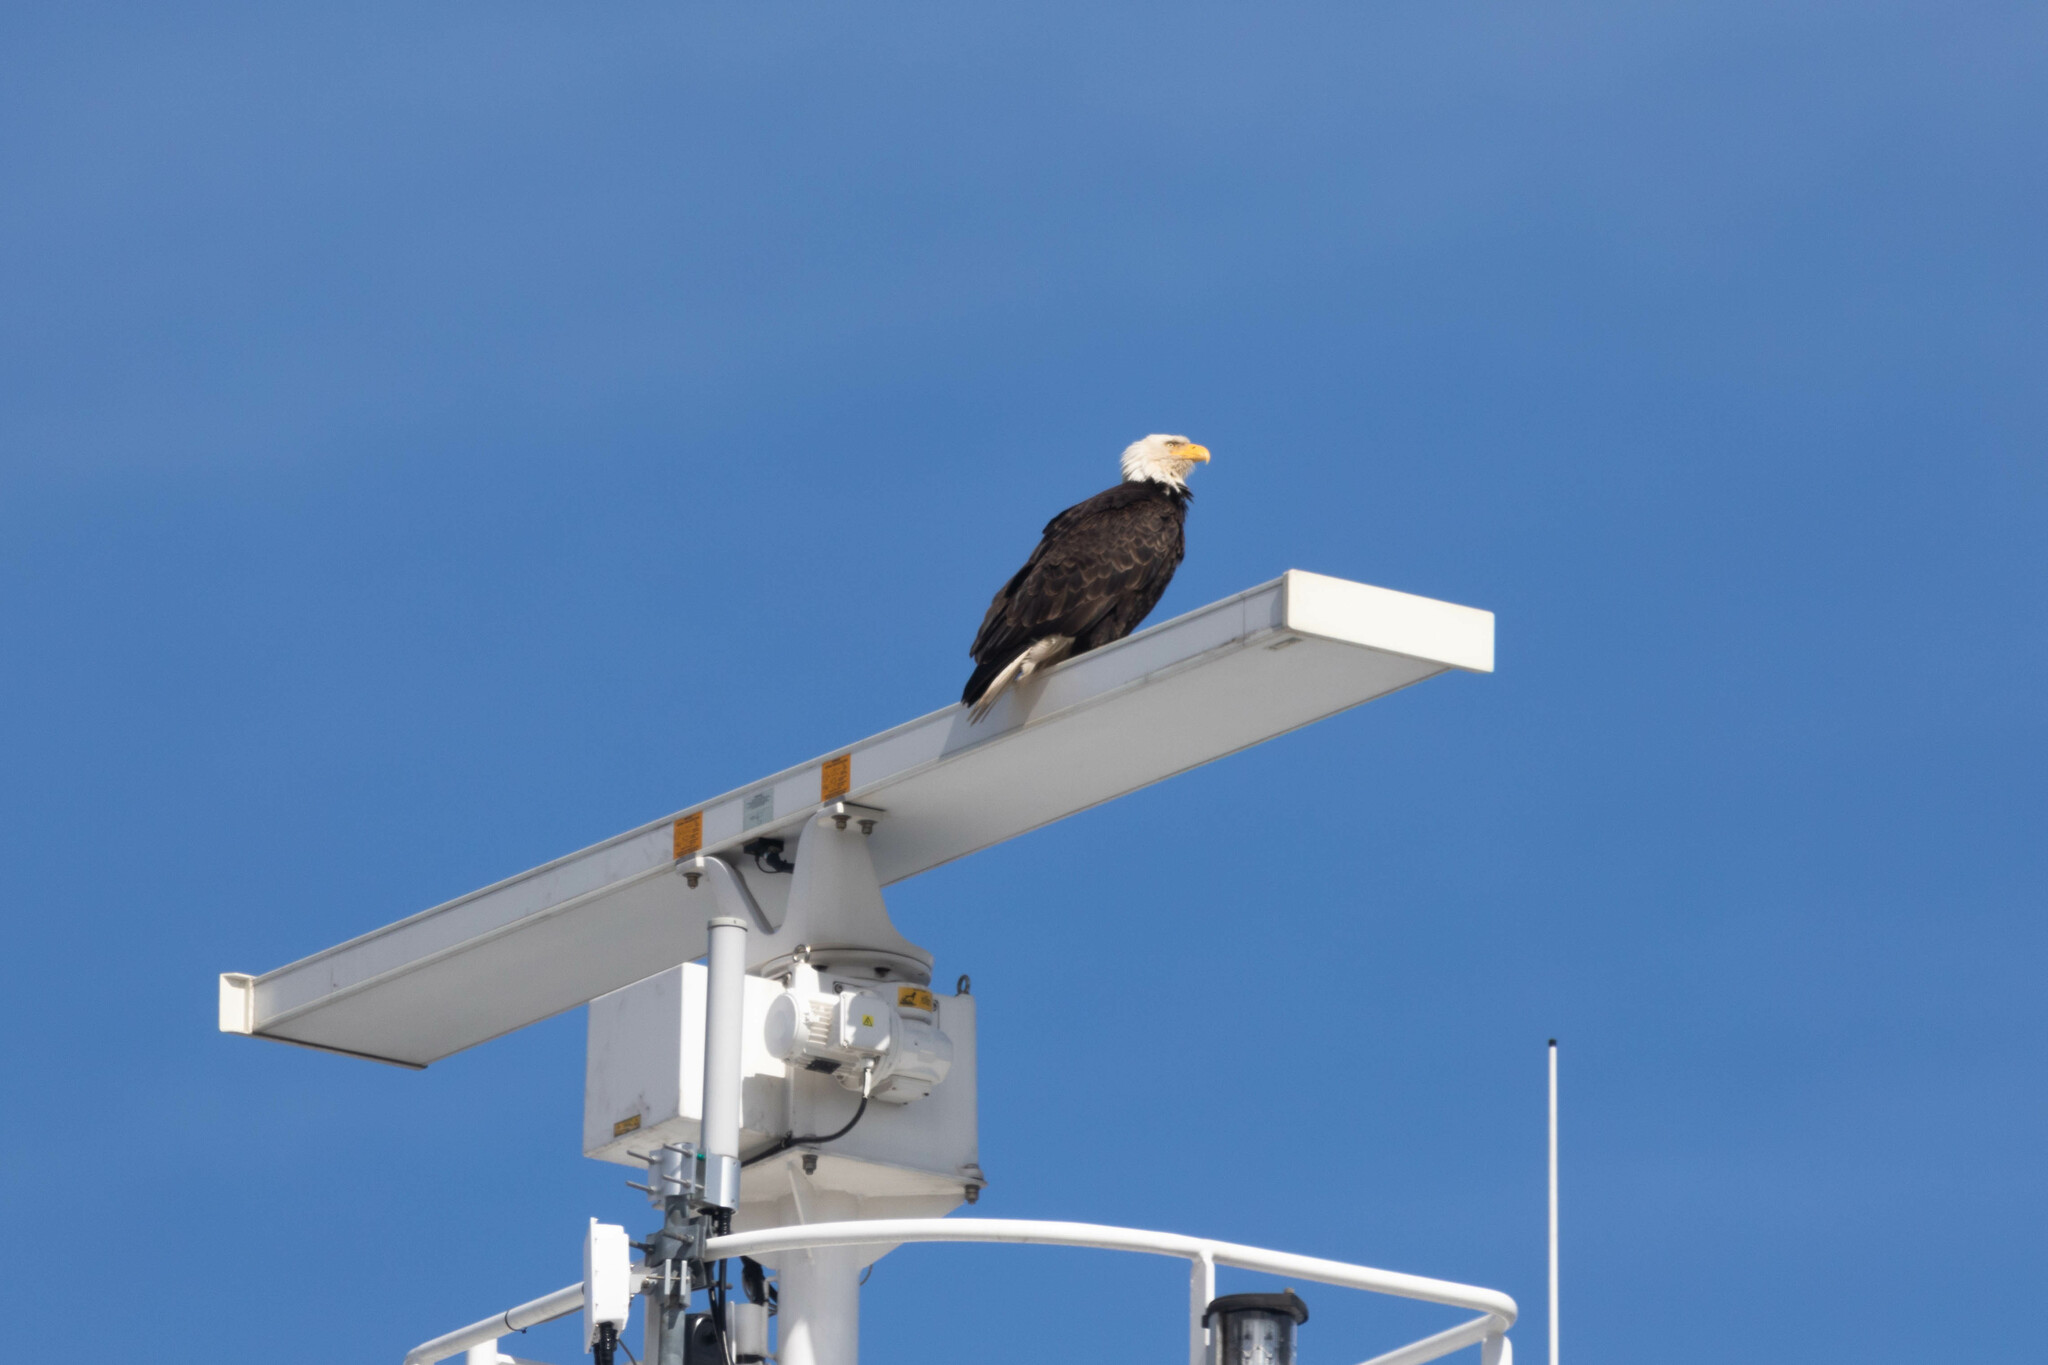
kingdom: Animalia
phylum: Chordata
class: Aves
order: Accipitriformes
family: Accipitridae
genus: Haliaeetus
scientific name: Haliaeetus leucocephalus
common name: Bald eagle
